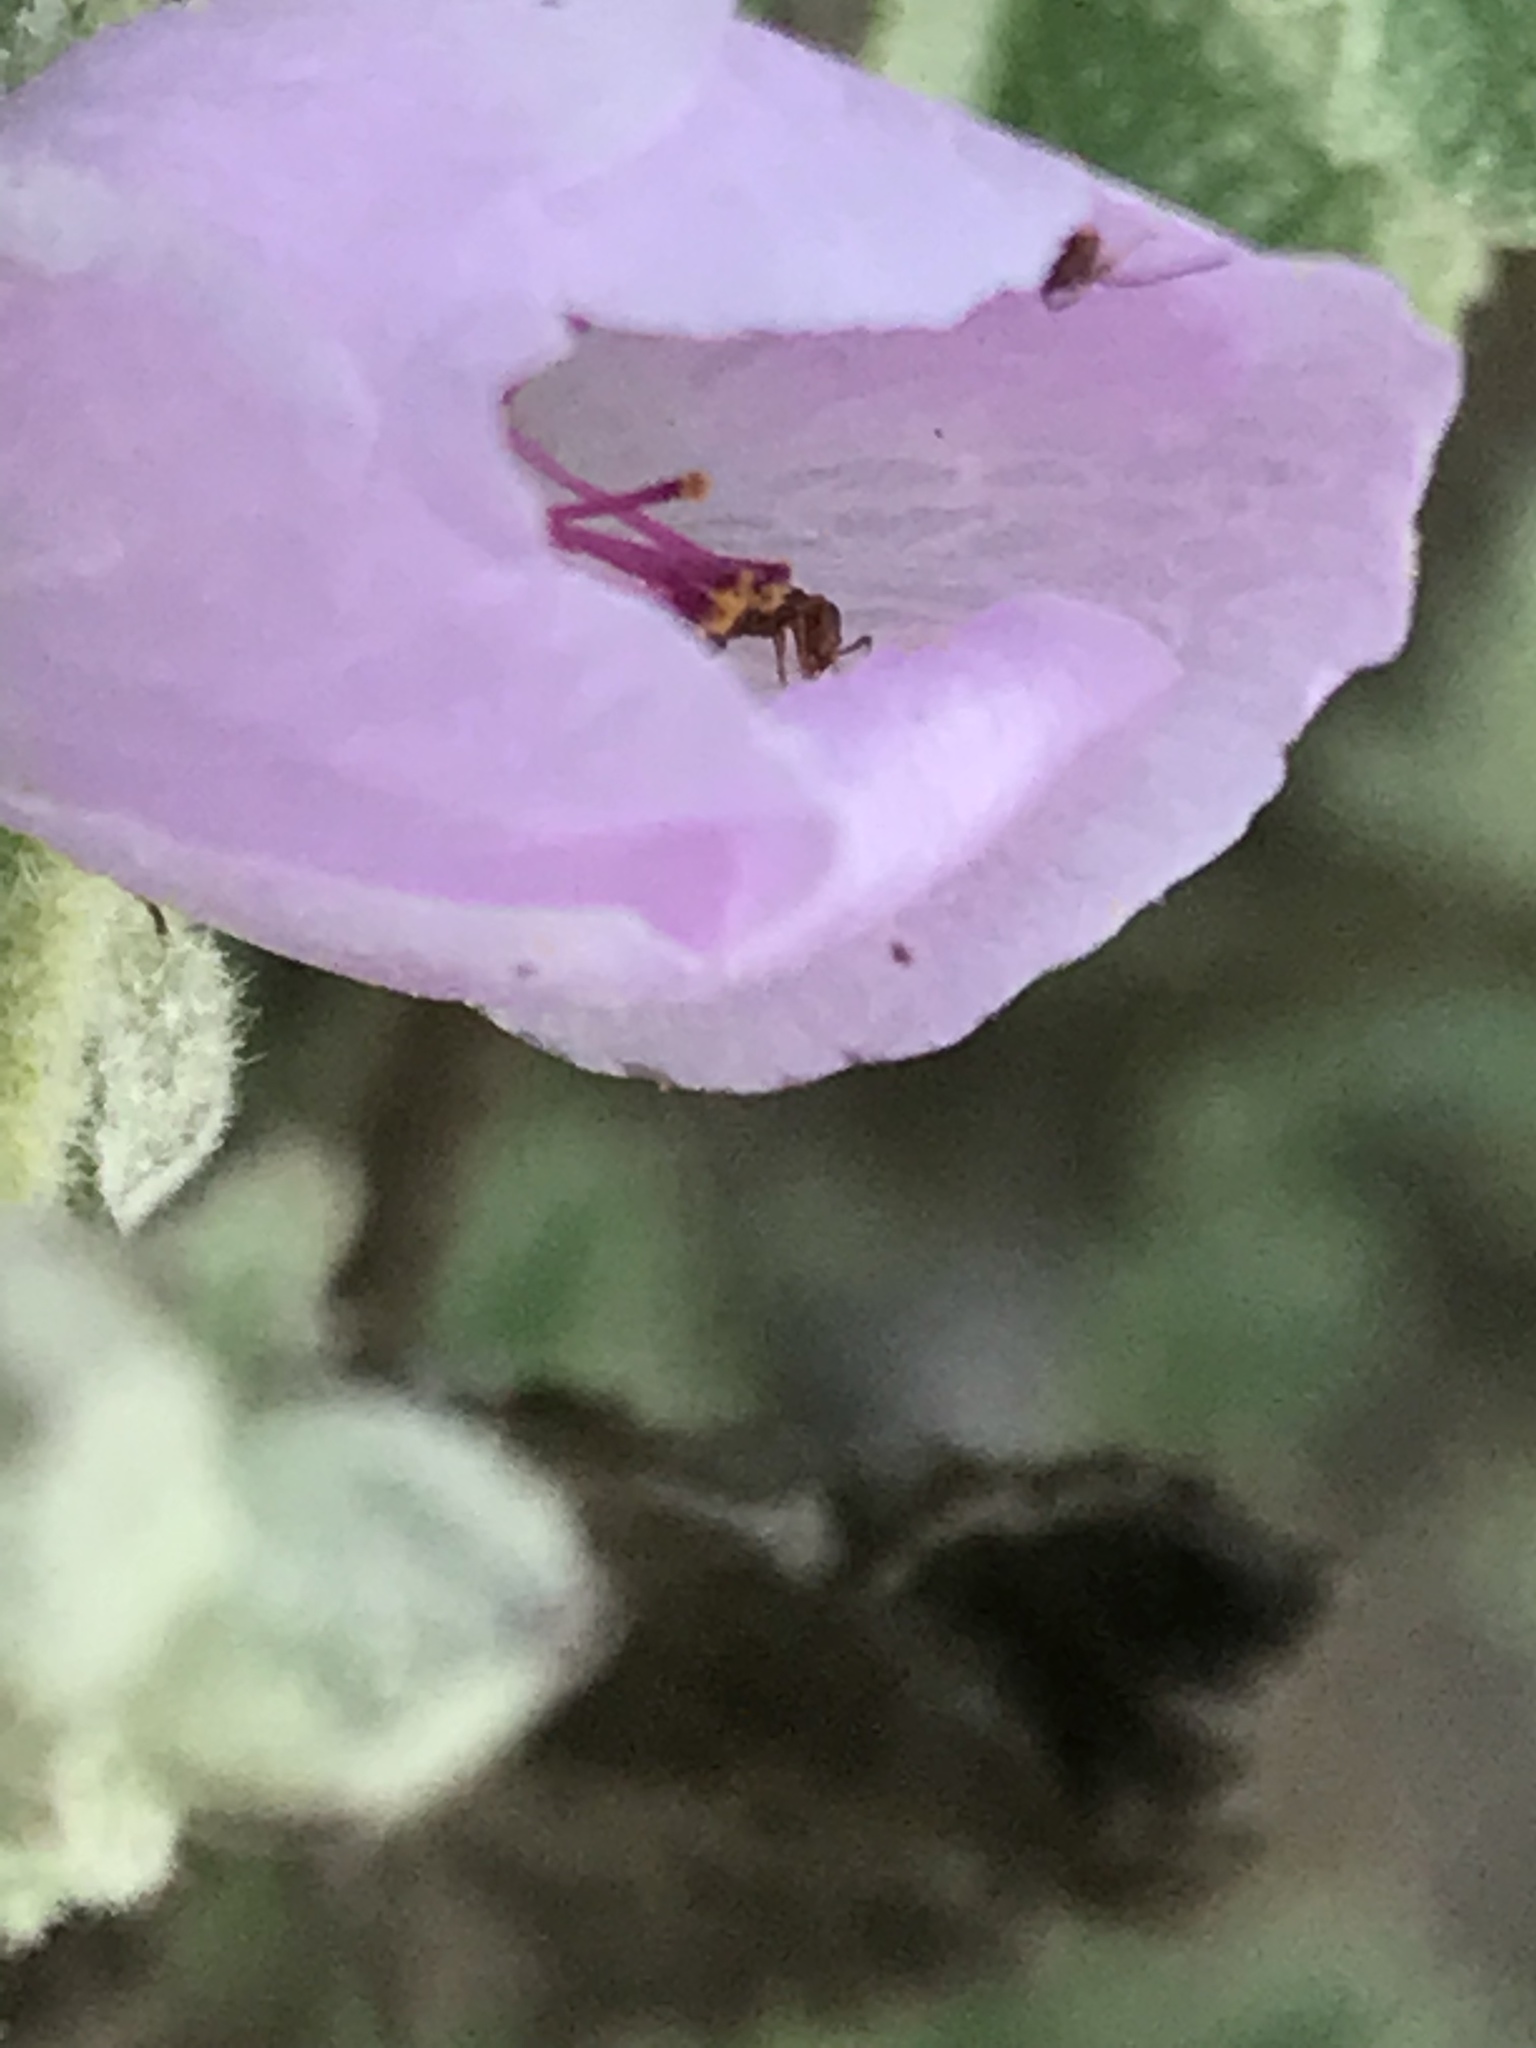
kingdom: Plantae
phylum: Tracheophyta
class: Magnoliopsida
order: Malvales
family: Malvaceae
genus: Malacothamnus
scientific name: Malacothamnus fasciculatus
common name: Sant cruz island bush-mallow
